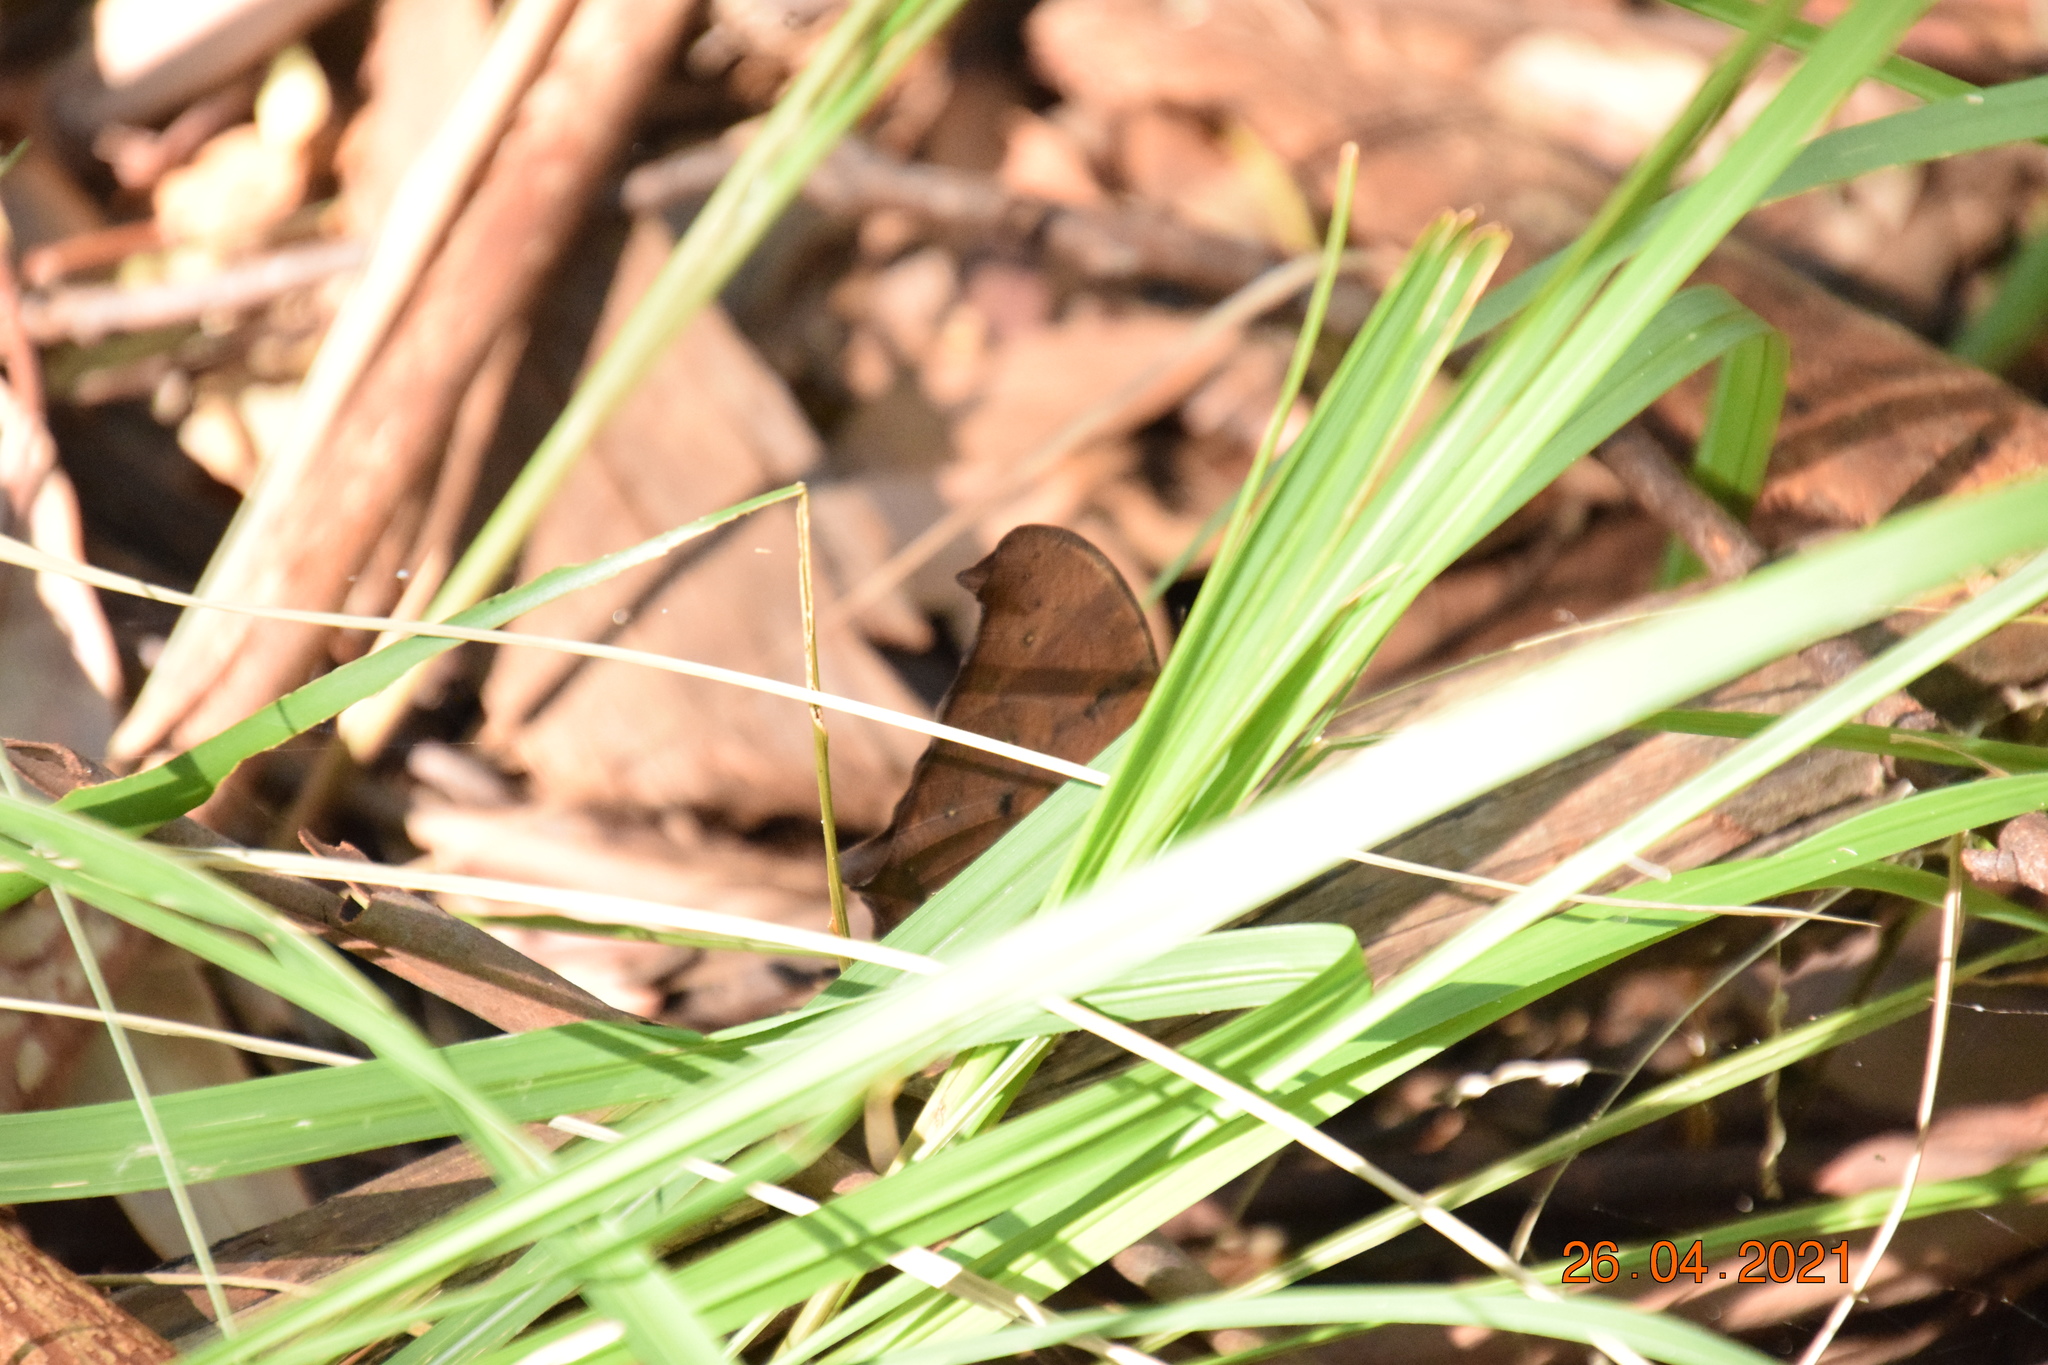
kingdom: Animalia
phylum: Arthropoda
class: Insecta
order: Lepidoptera
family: Nymphalidae
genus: Melanitis
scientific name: Melanitis leda
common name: Twilight brown
